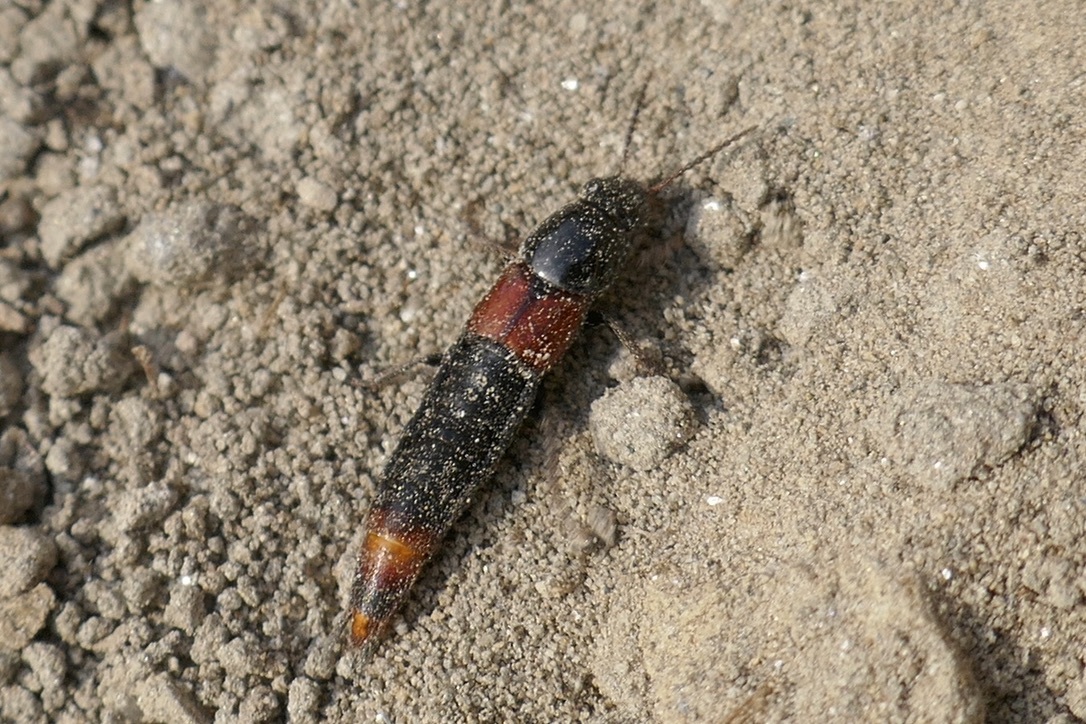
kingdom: Animalia
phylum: Arthropoda
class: Insecta
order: Coleoptera
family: Staphylinidae
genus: Astrapaeus
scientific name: Astrapaeus ulmi
